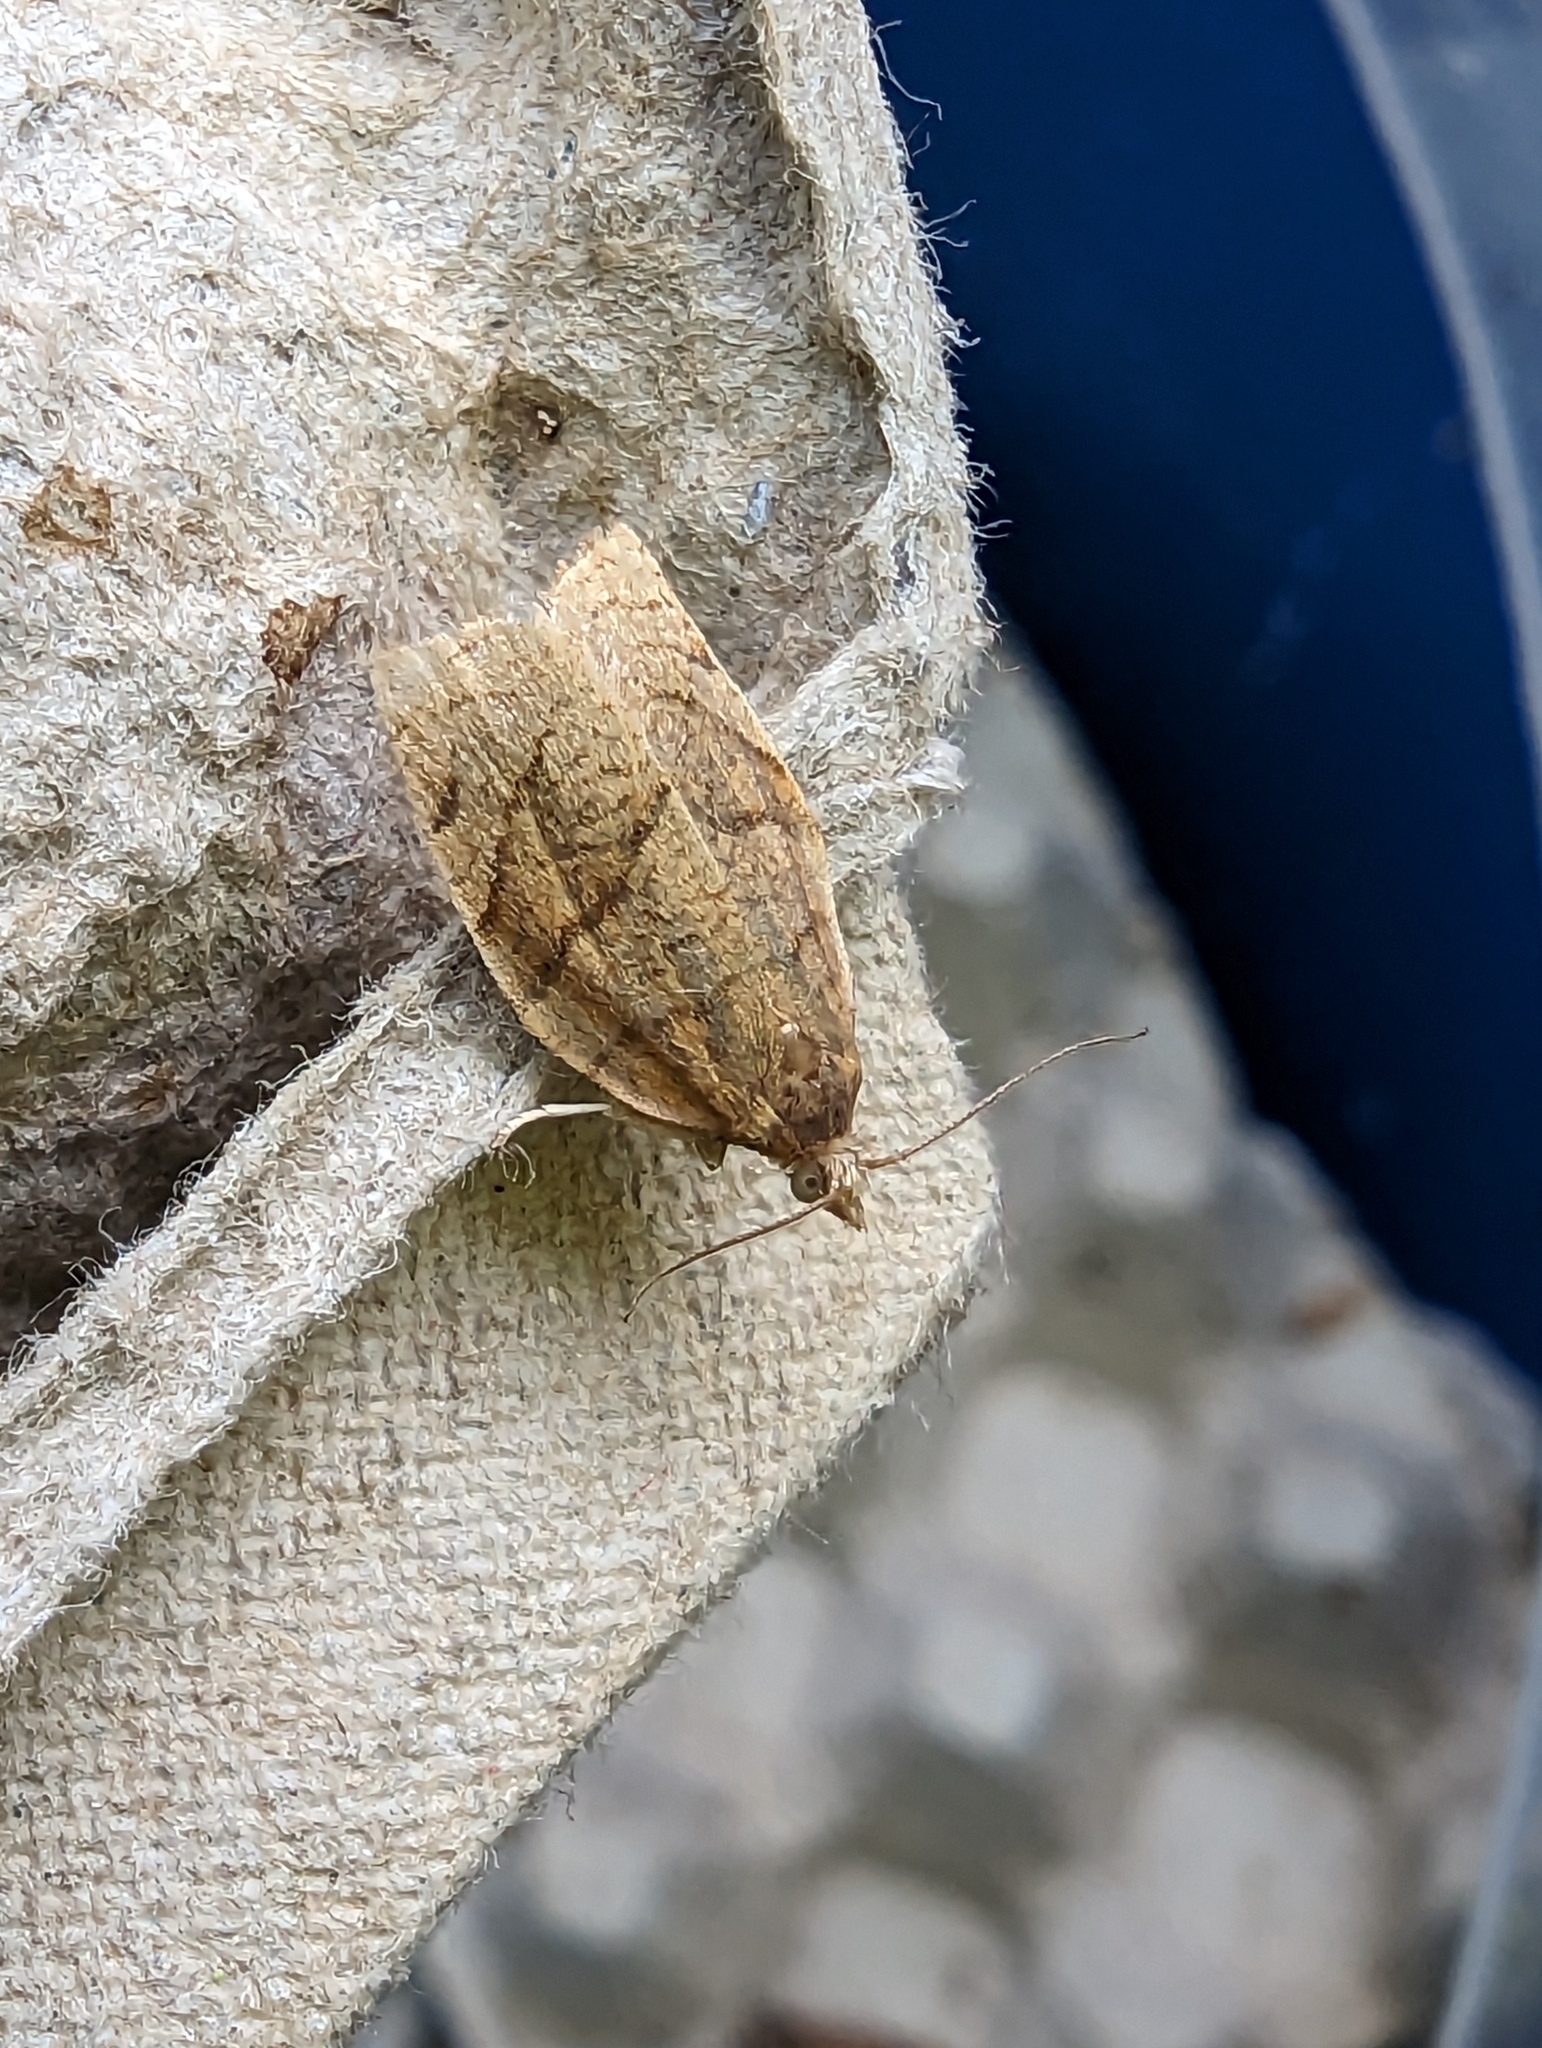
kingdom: Animalia
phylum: Arthropoda
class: Insecta
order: Lepidoptera
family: Tortricidae
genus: Pandemis
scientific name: Pandemis cerasana
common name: Barred fruit-tree tortrix
